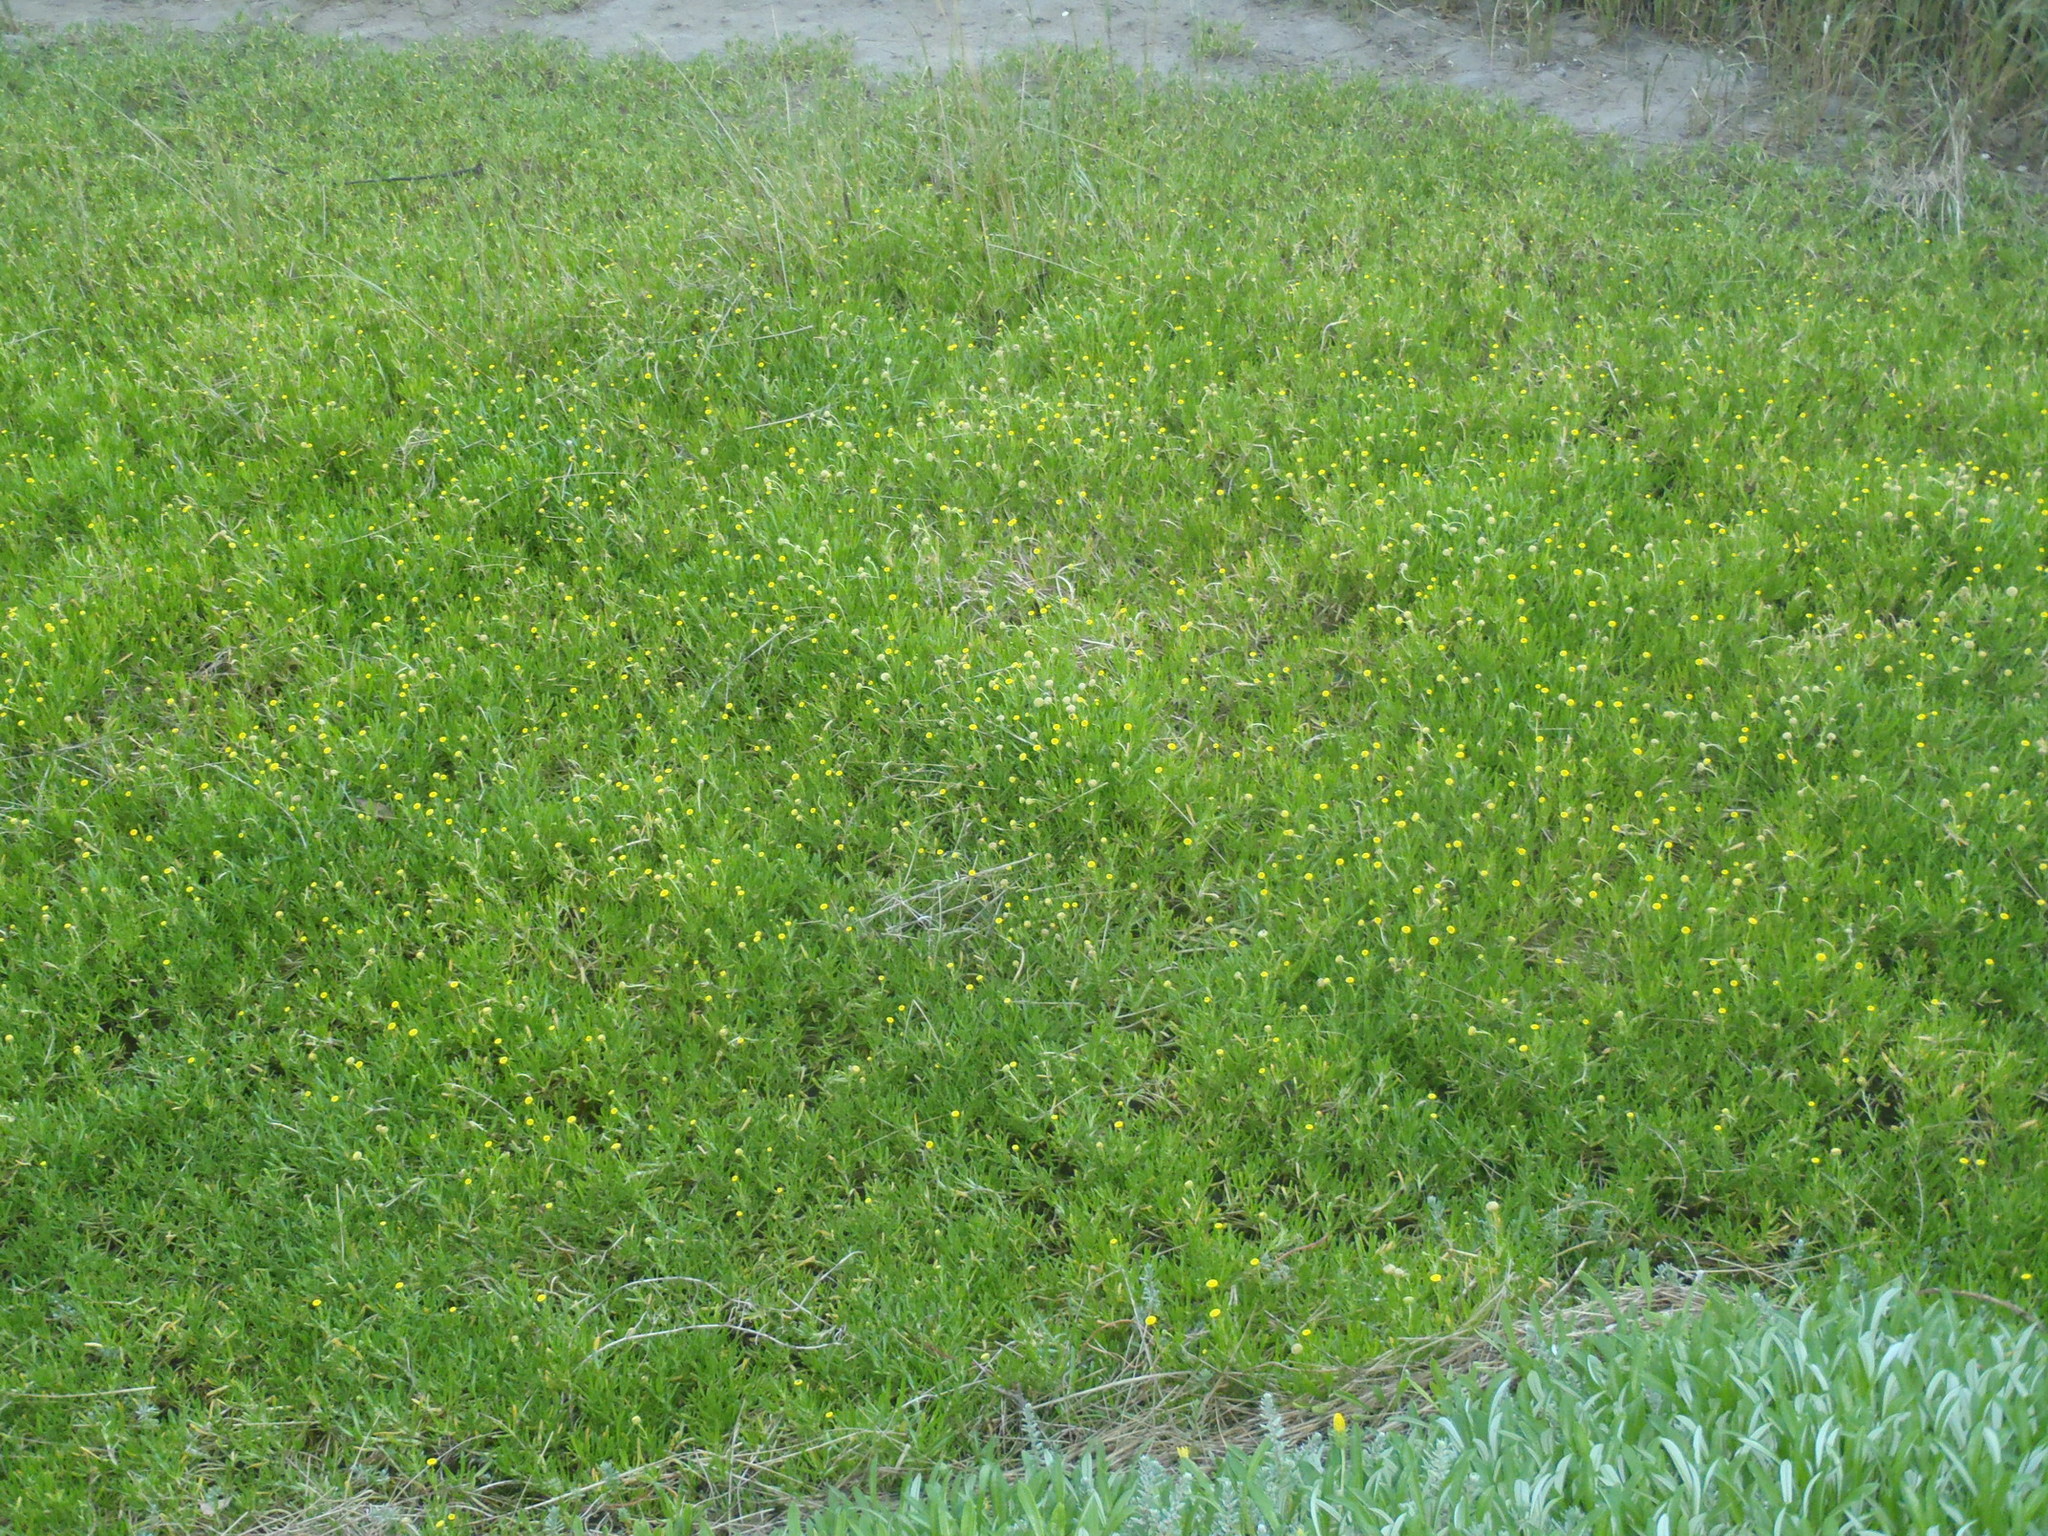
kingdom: Plantae
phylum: Tracheophyta
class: Magnoliopsida
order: Asterales
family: Asteraceae
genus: Cotula
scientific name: Cotula coronopifolia
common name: Buttonweed
